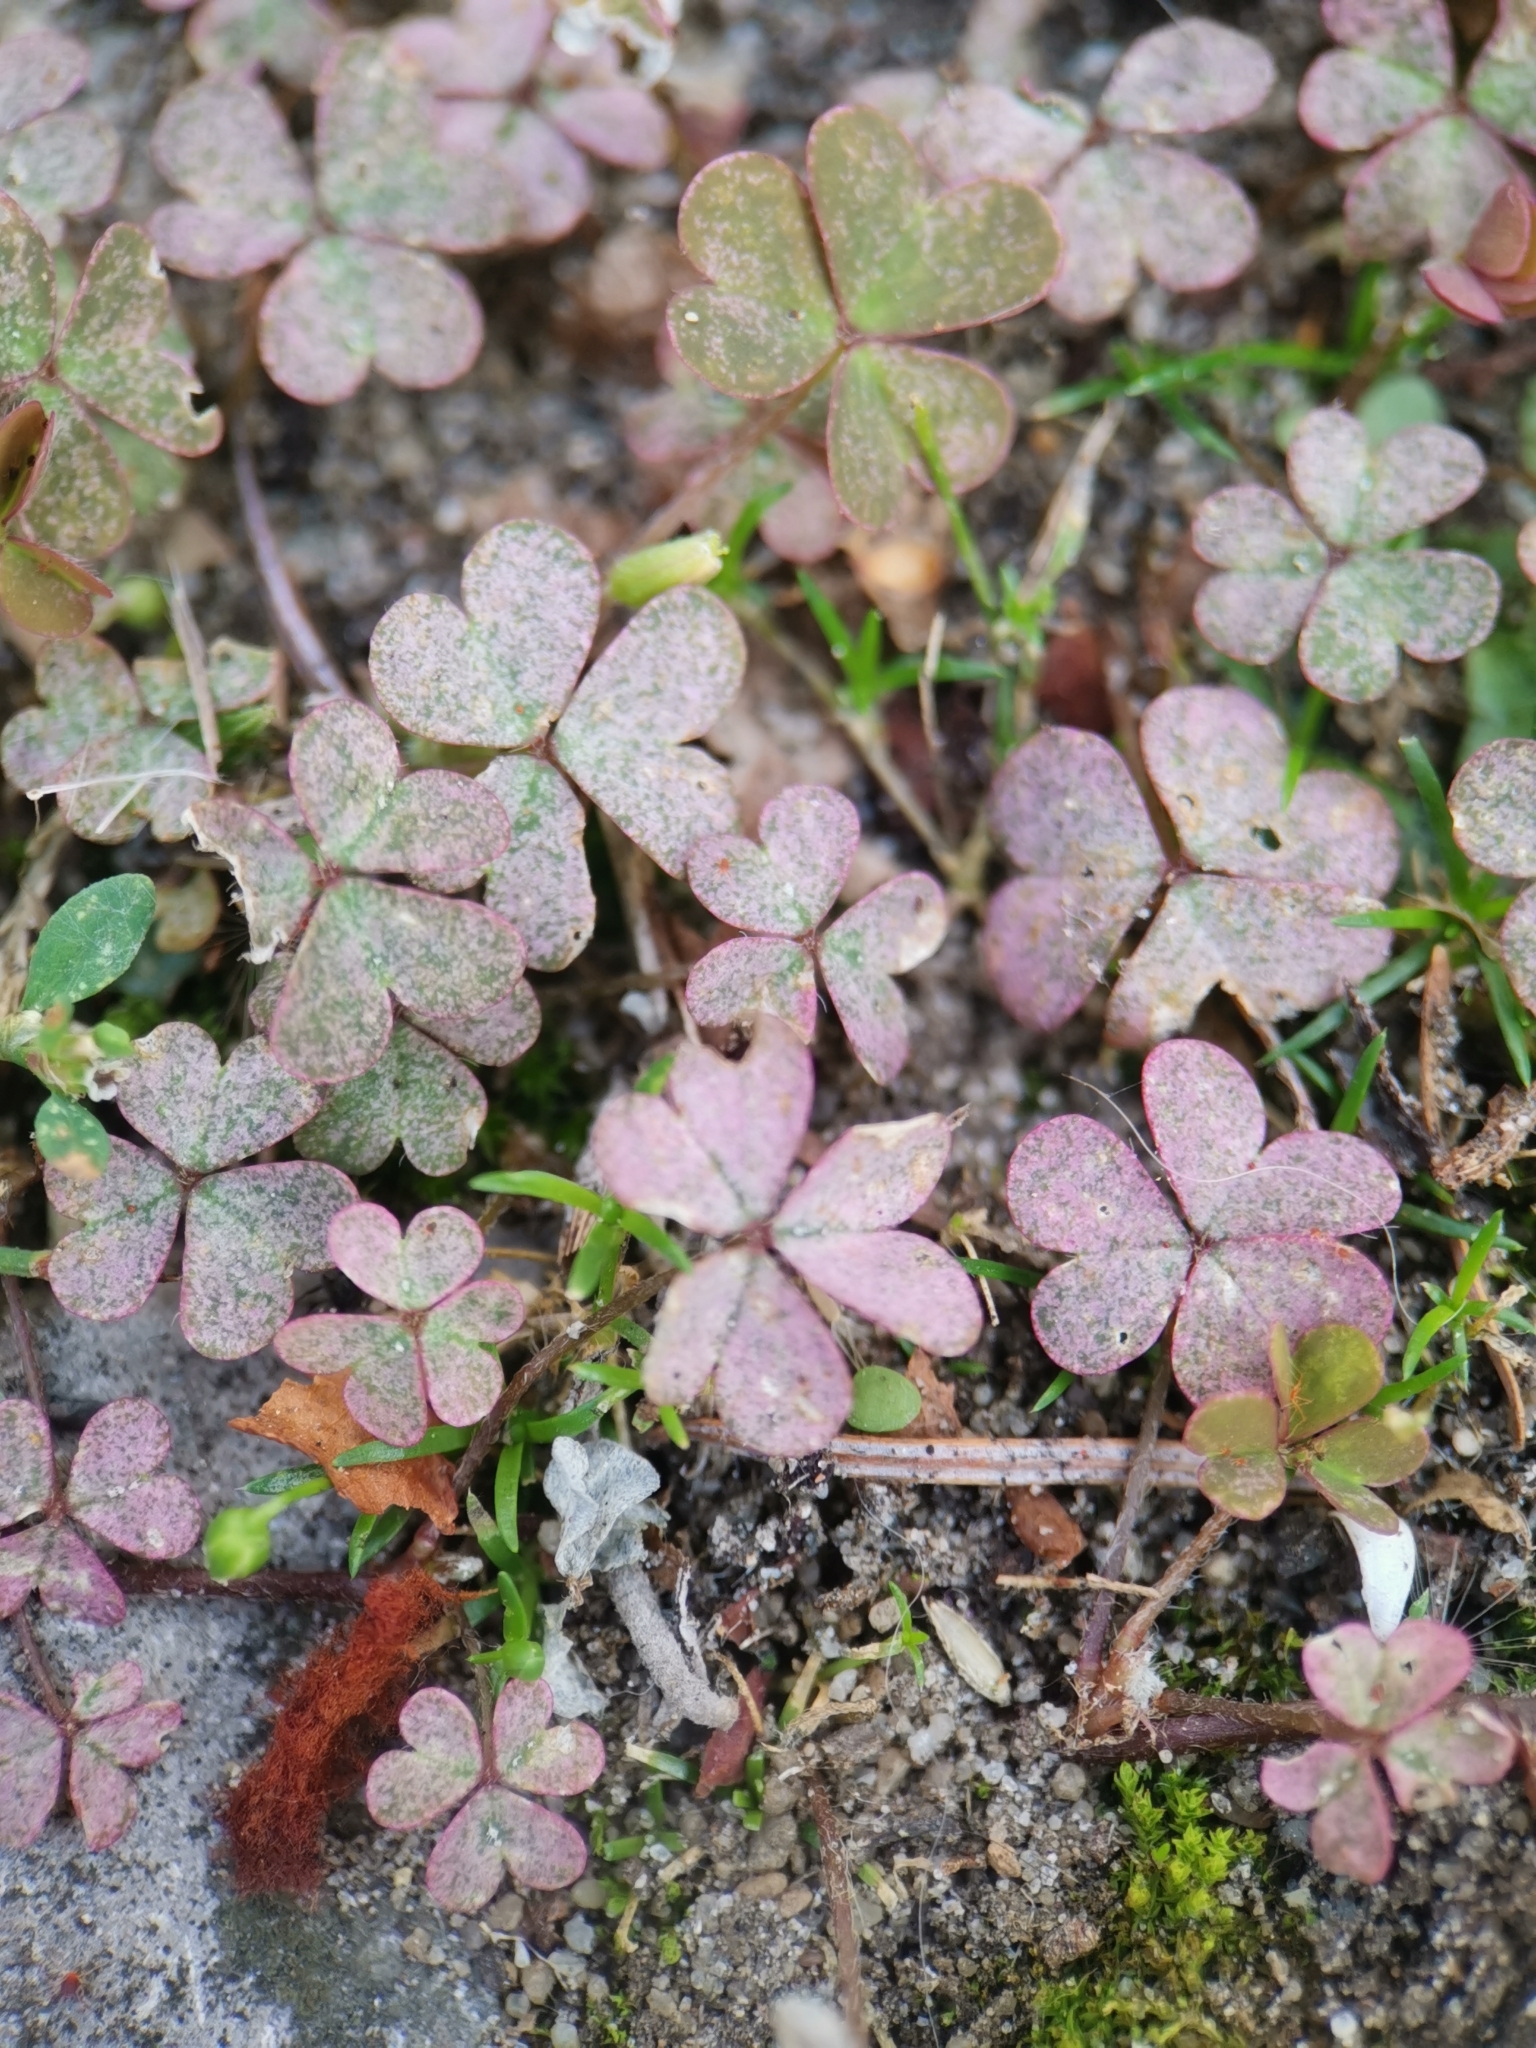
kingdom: Plantae
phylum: Tracheophyta
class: Magnoliopsida
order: Oxalidales
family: Oxalidaceae
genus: Oxalis
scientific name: Oxalis corniculata
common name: Procumbent yellow-sorrel
